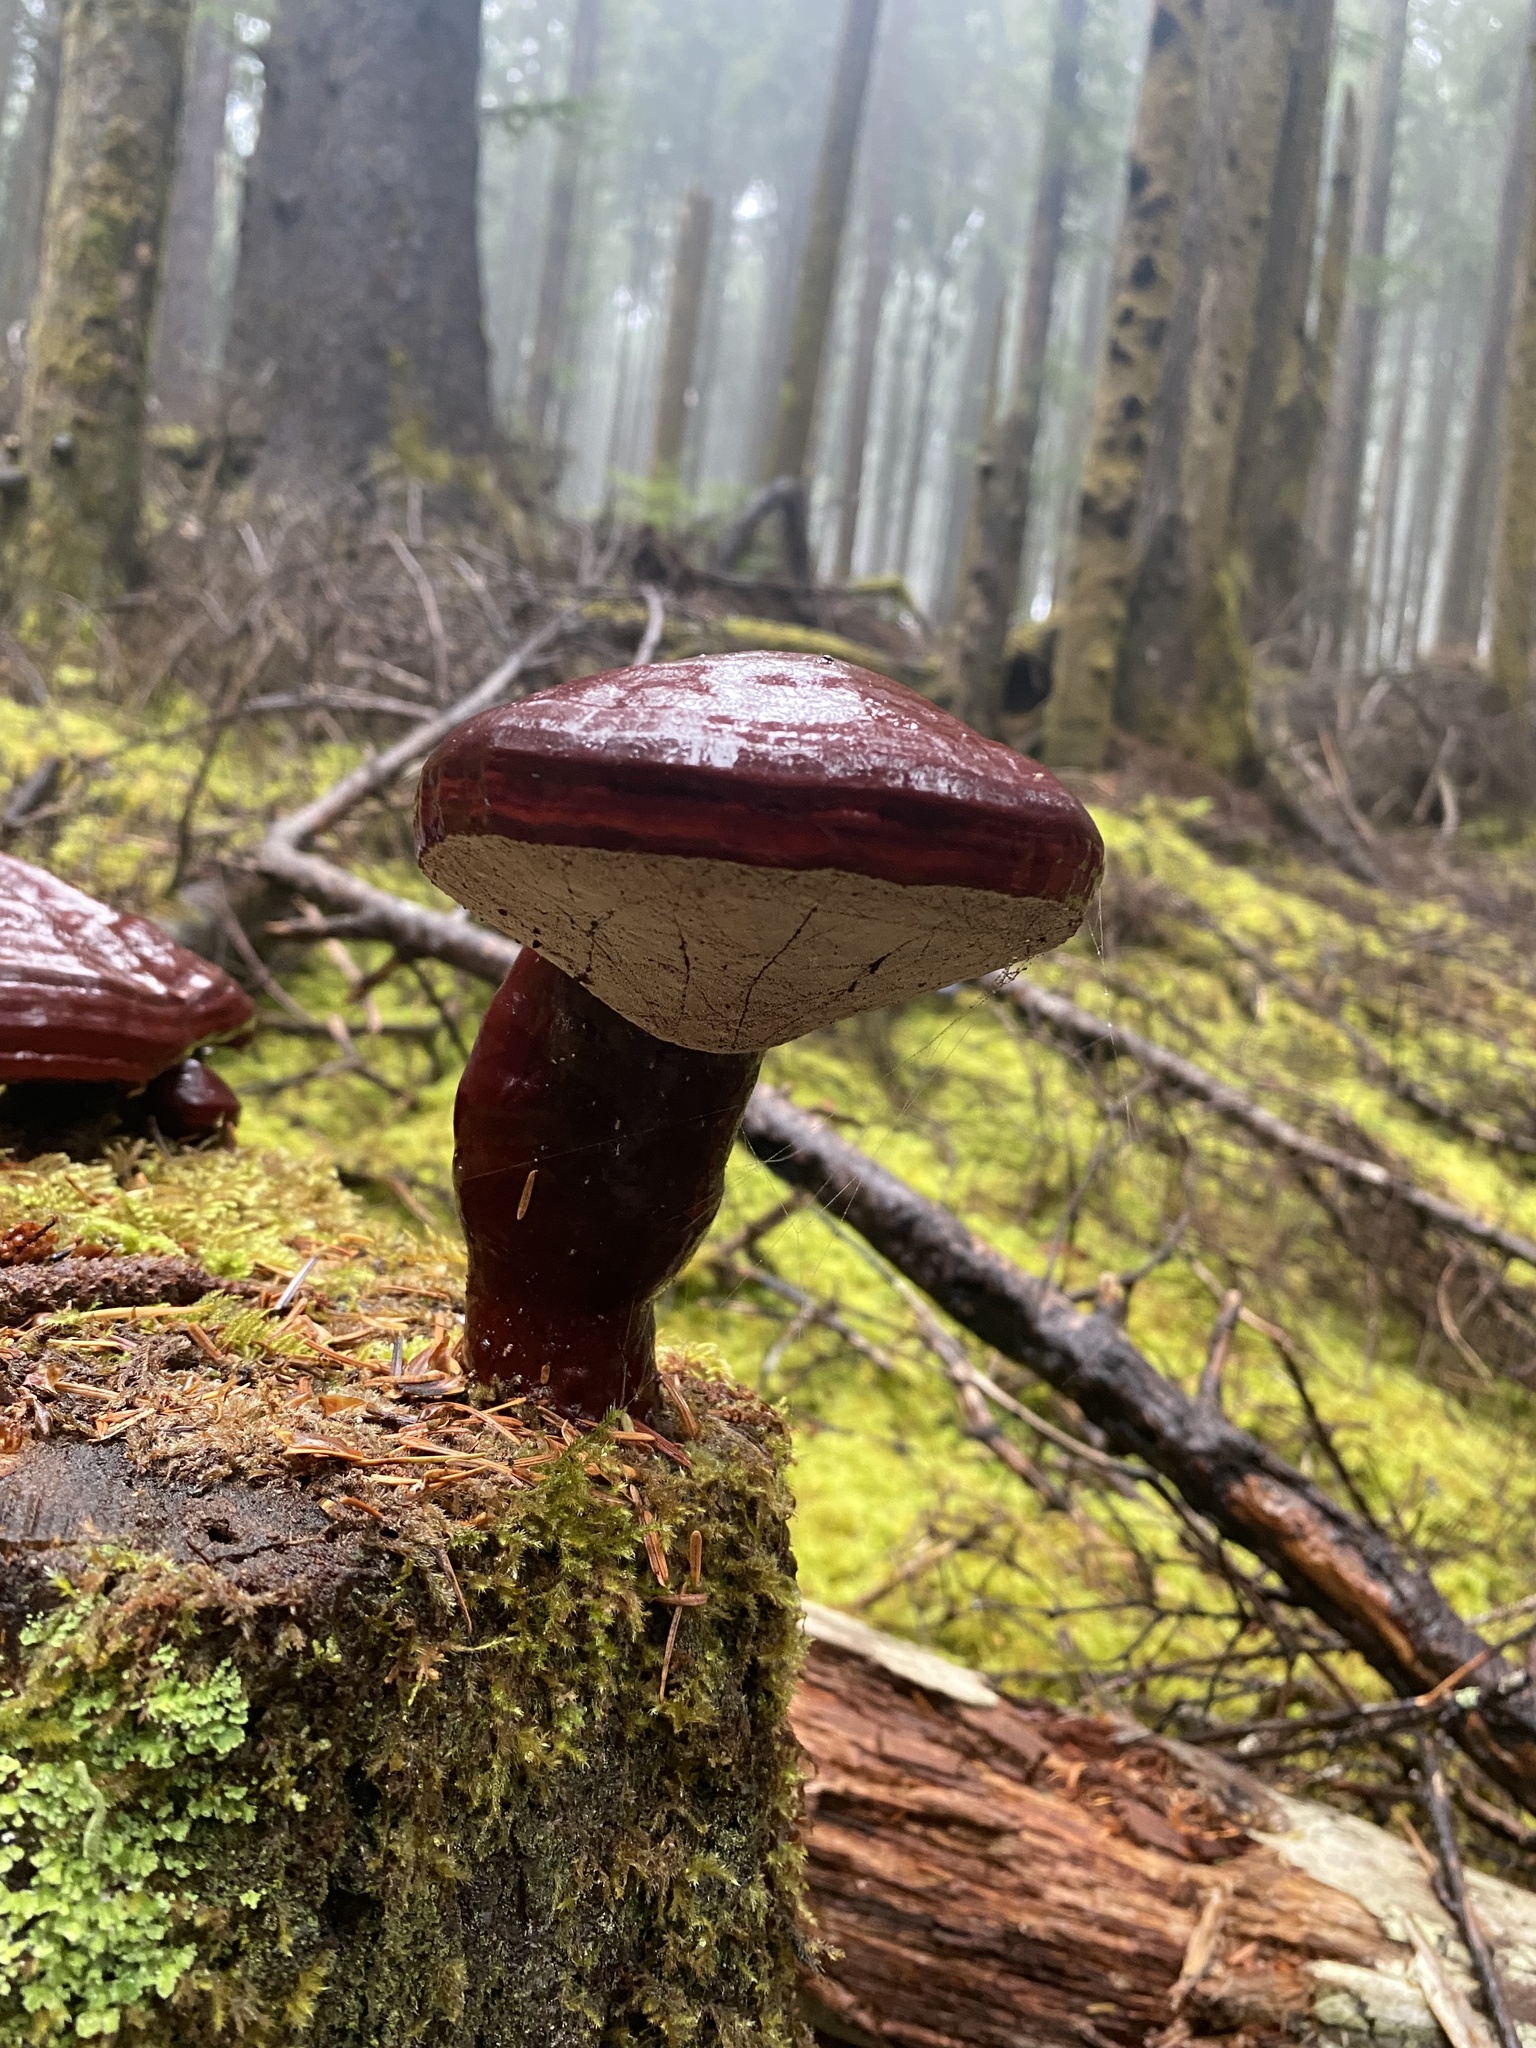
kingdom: Fungi
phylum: Basidiomycota
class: Agaricomycetes
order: Polyporales
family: Polyporaceae
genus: Ganoderma
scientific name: Ganoderma oregonense
